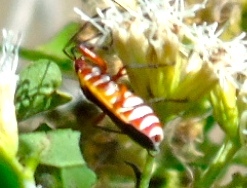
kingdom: Animalia
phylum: Arthropoda
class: Insecta
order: Hemiptera
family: Pyrrhocoridae
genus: Dysdercus
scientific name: Dysdercus obscuratus
